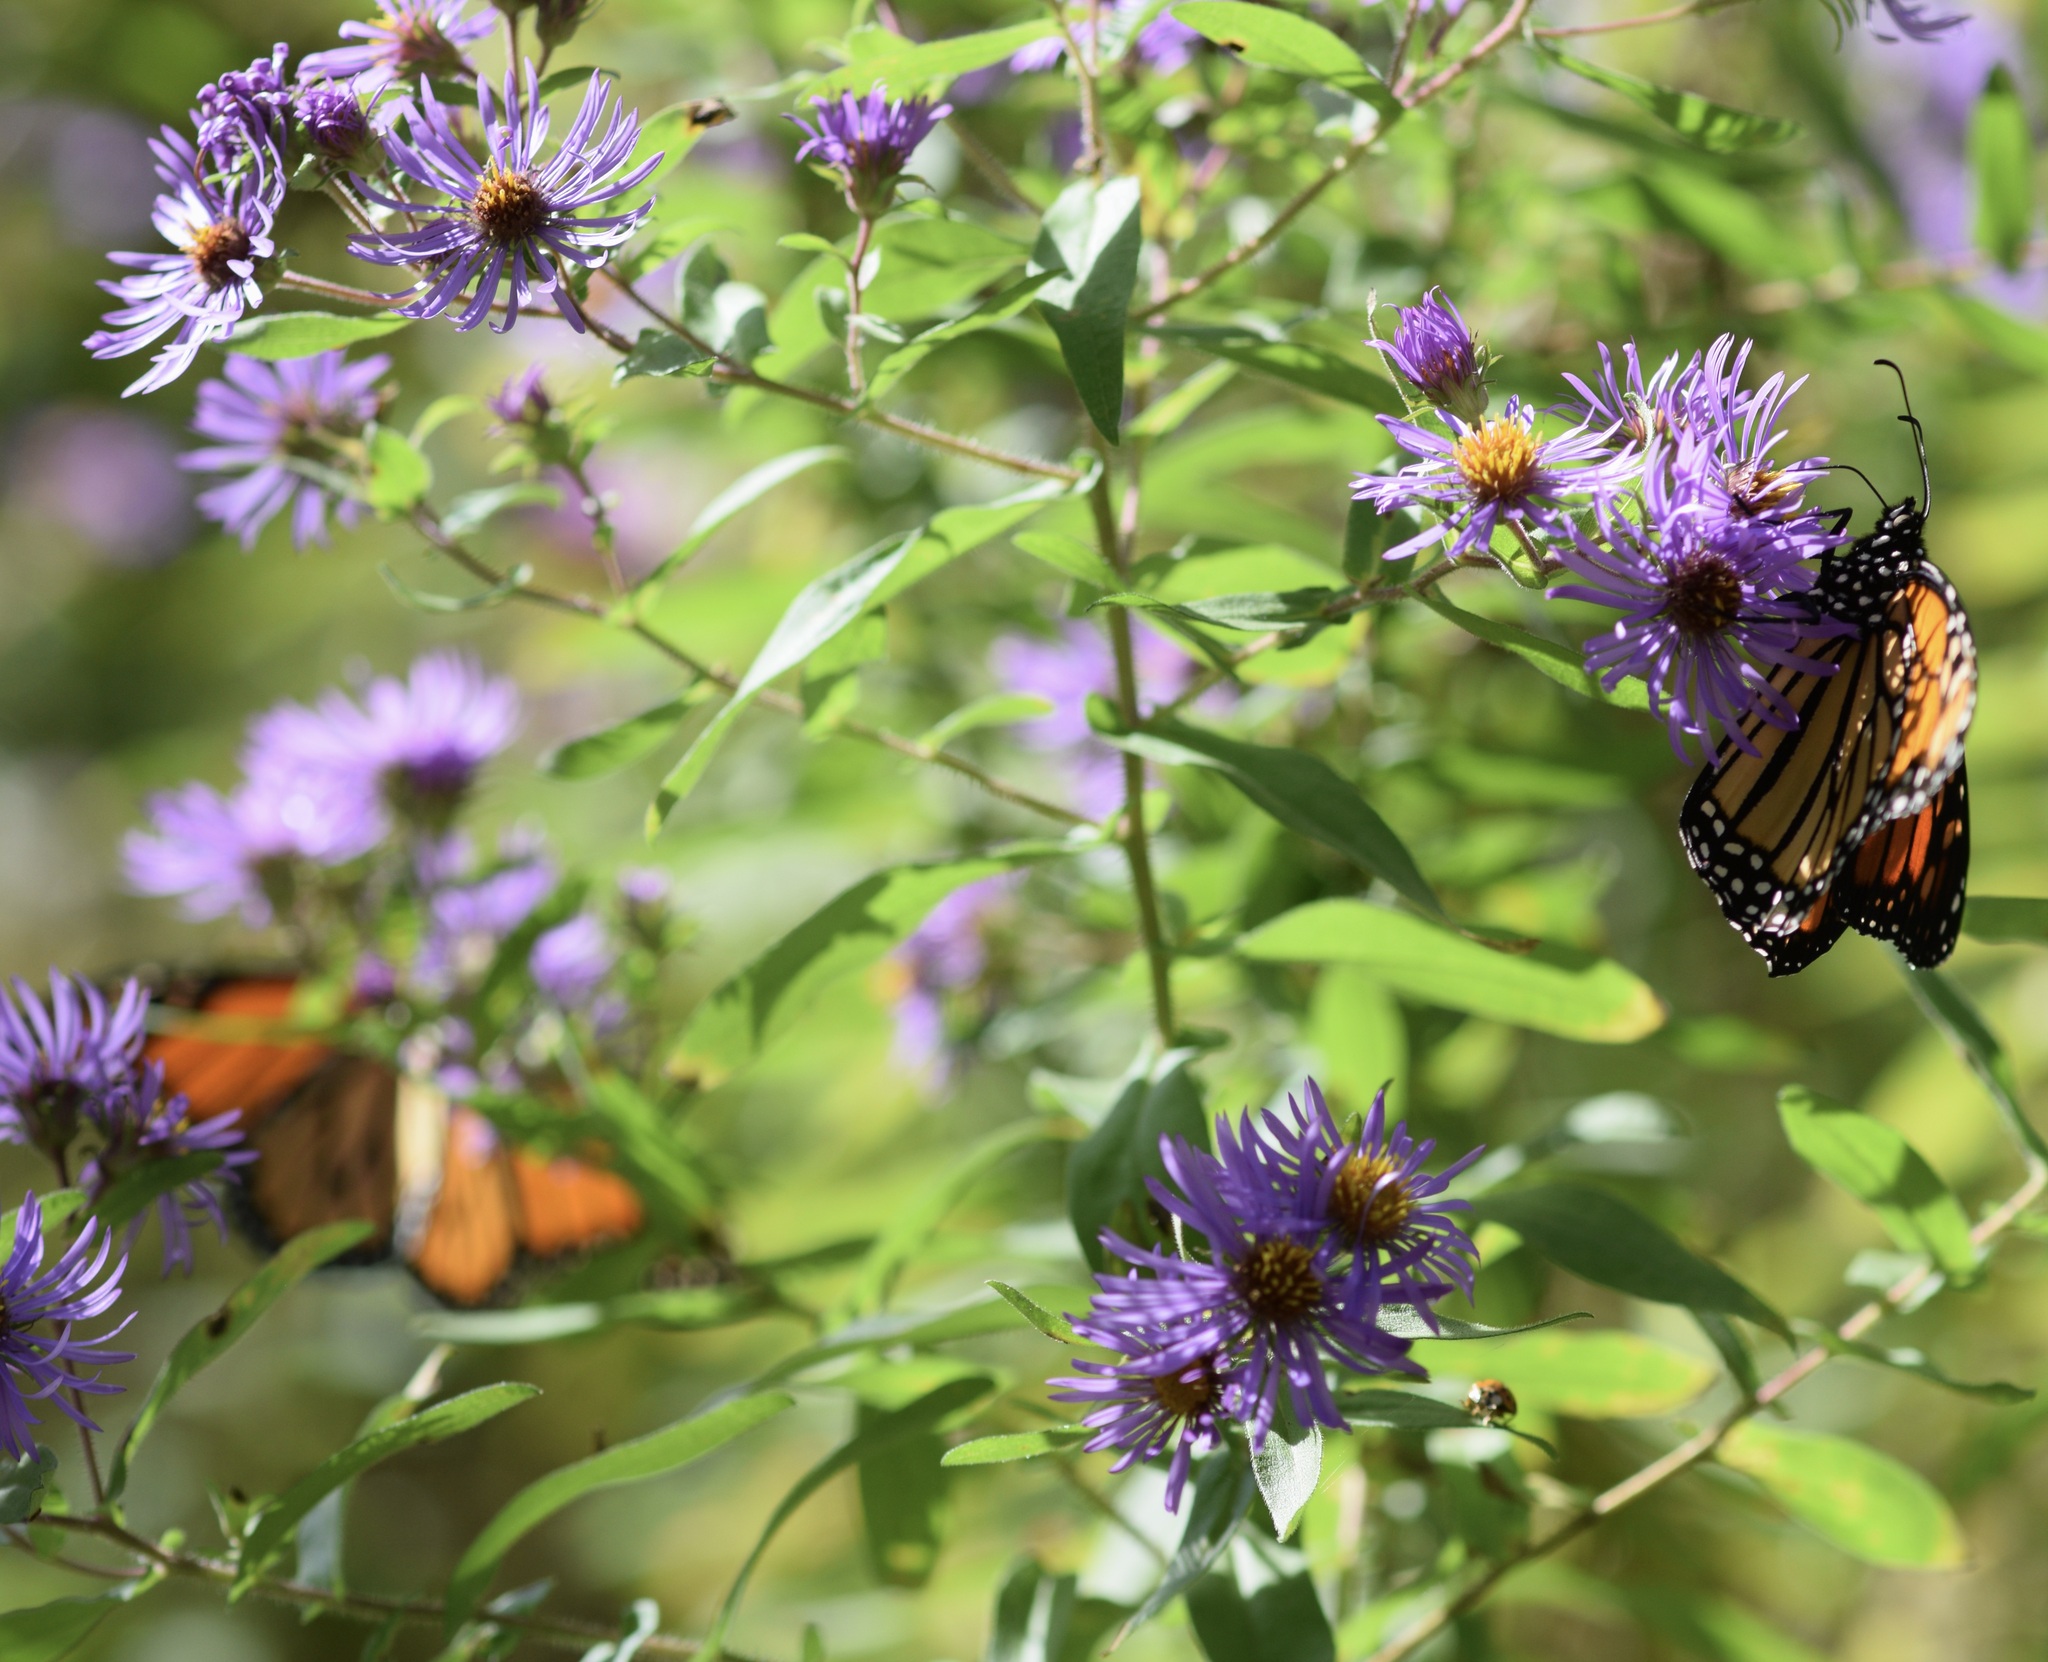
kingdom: Animalia
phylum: Arthropoda
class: Insecta
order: Lepidoptera
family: Nymphalidae
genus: Danaus
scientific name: Danaus plexippus
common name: Monarch
